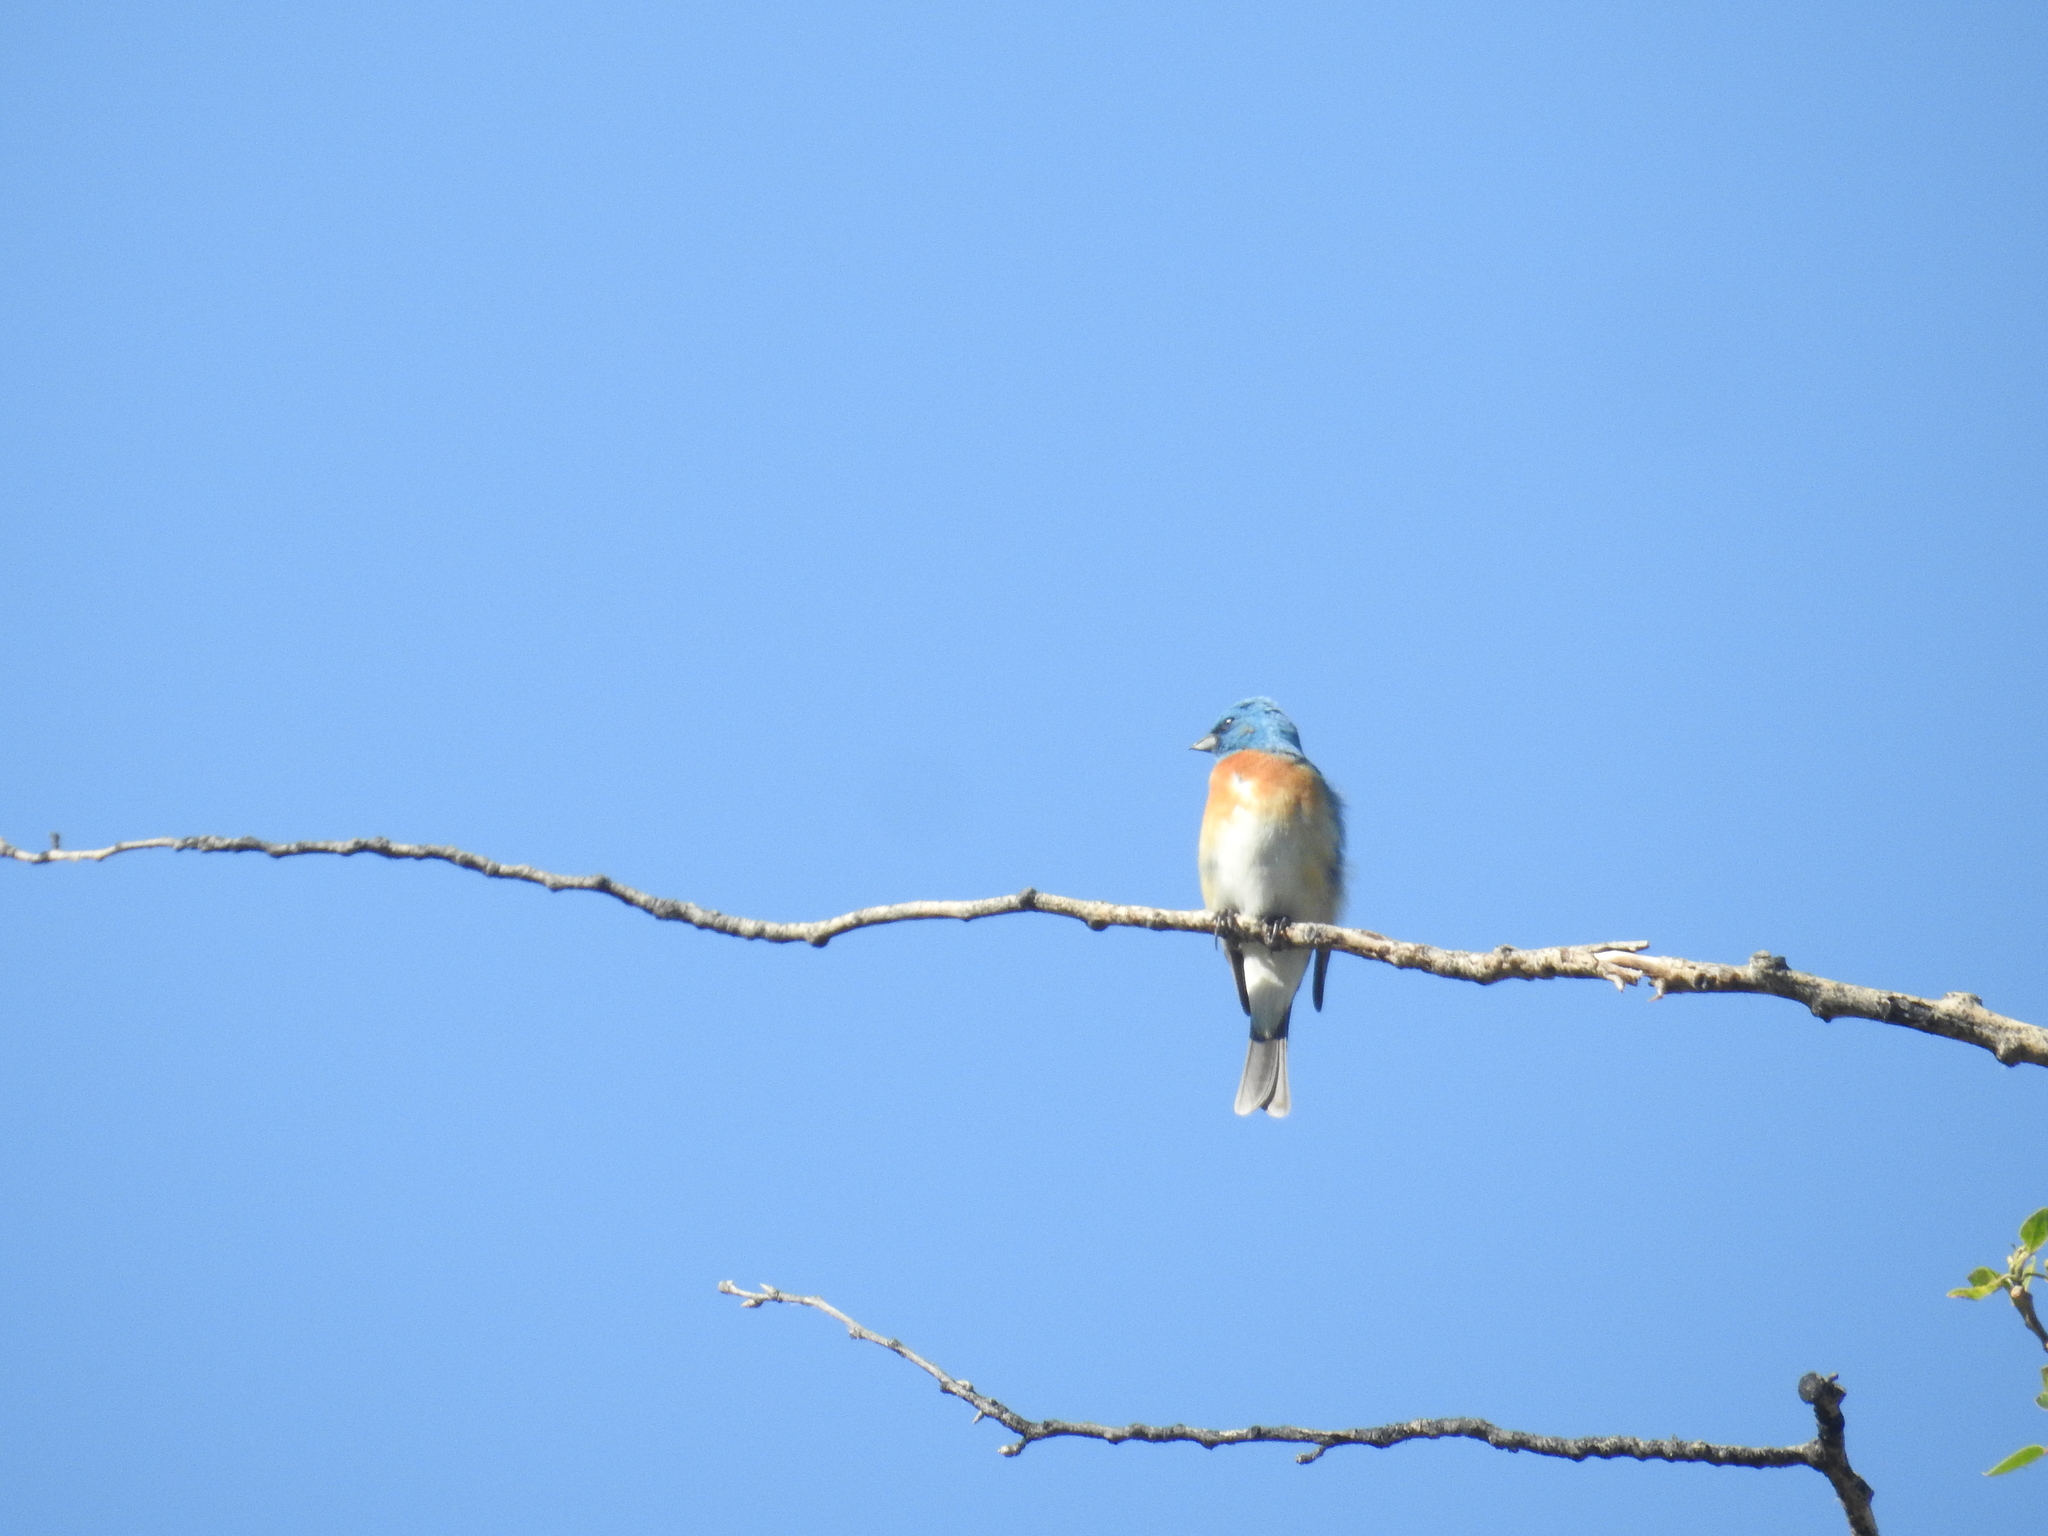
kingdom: Animalia
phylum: Chordata
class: Aves
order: Passeriformes
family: Cardinalidae
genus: Passerina
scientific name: Passerina amoena
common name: Lazuli bunting
